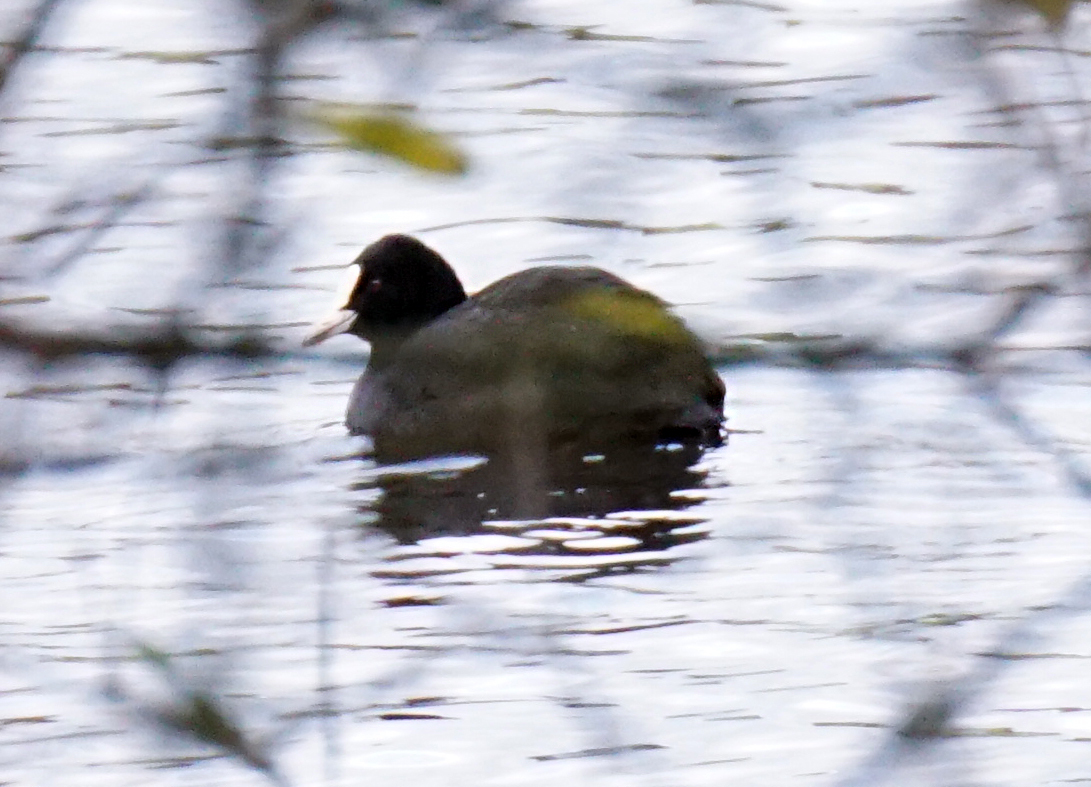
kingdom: Animalia
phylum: Chordata
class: Aves
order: Gruiformes
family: Rallidae
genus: Fulica
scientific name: Fulica atra
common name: Eurasian coot
